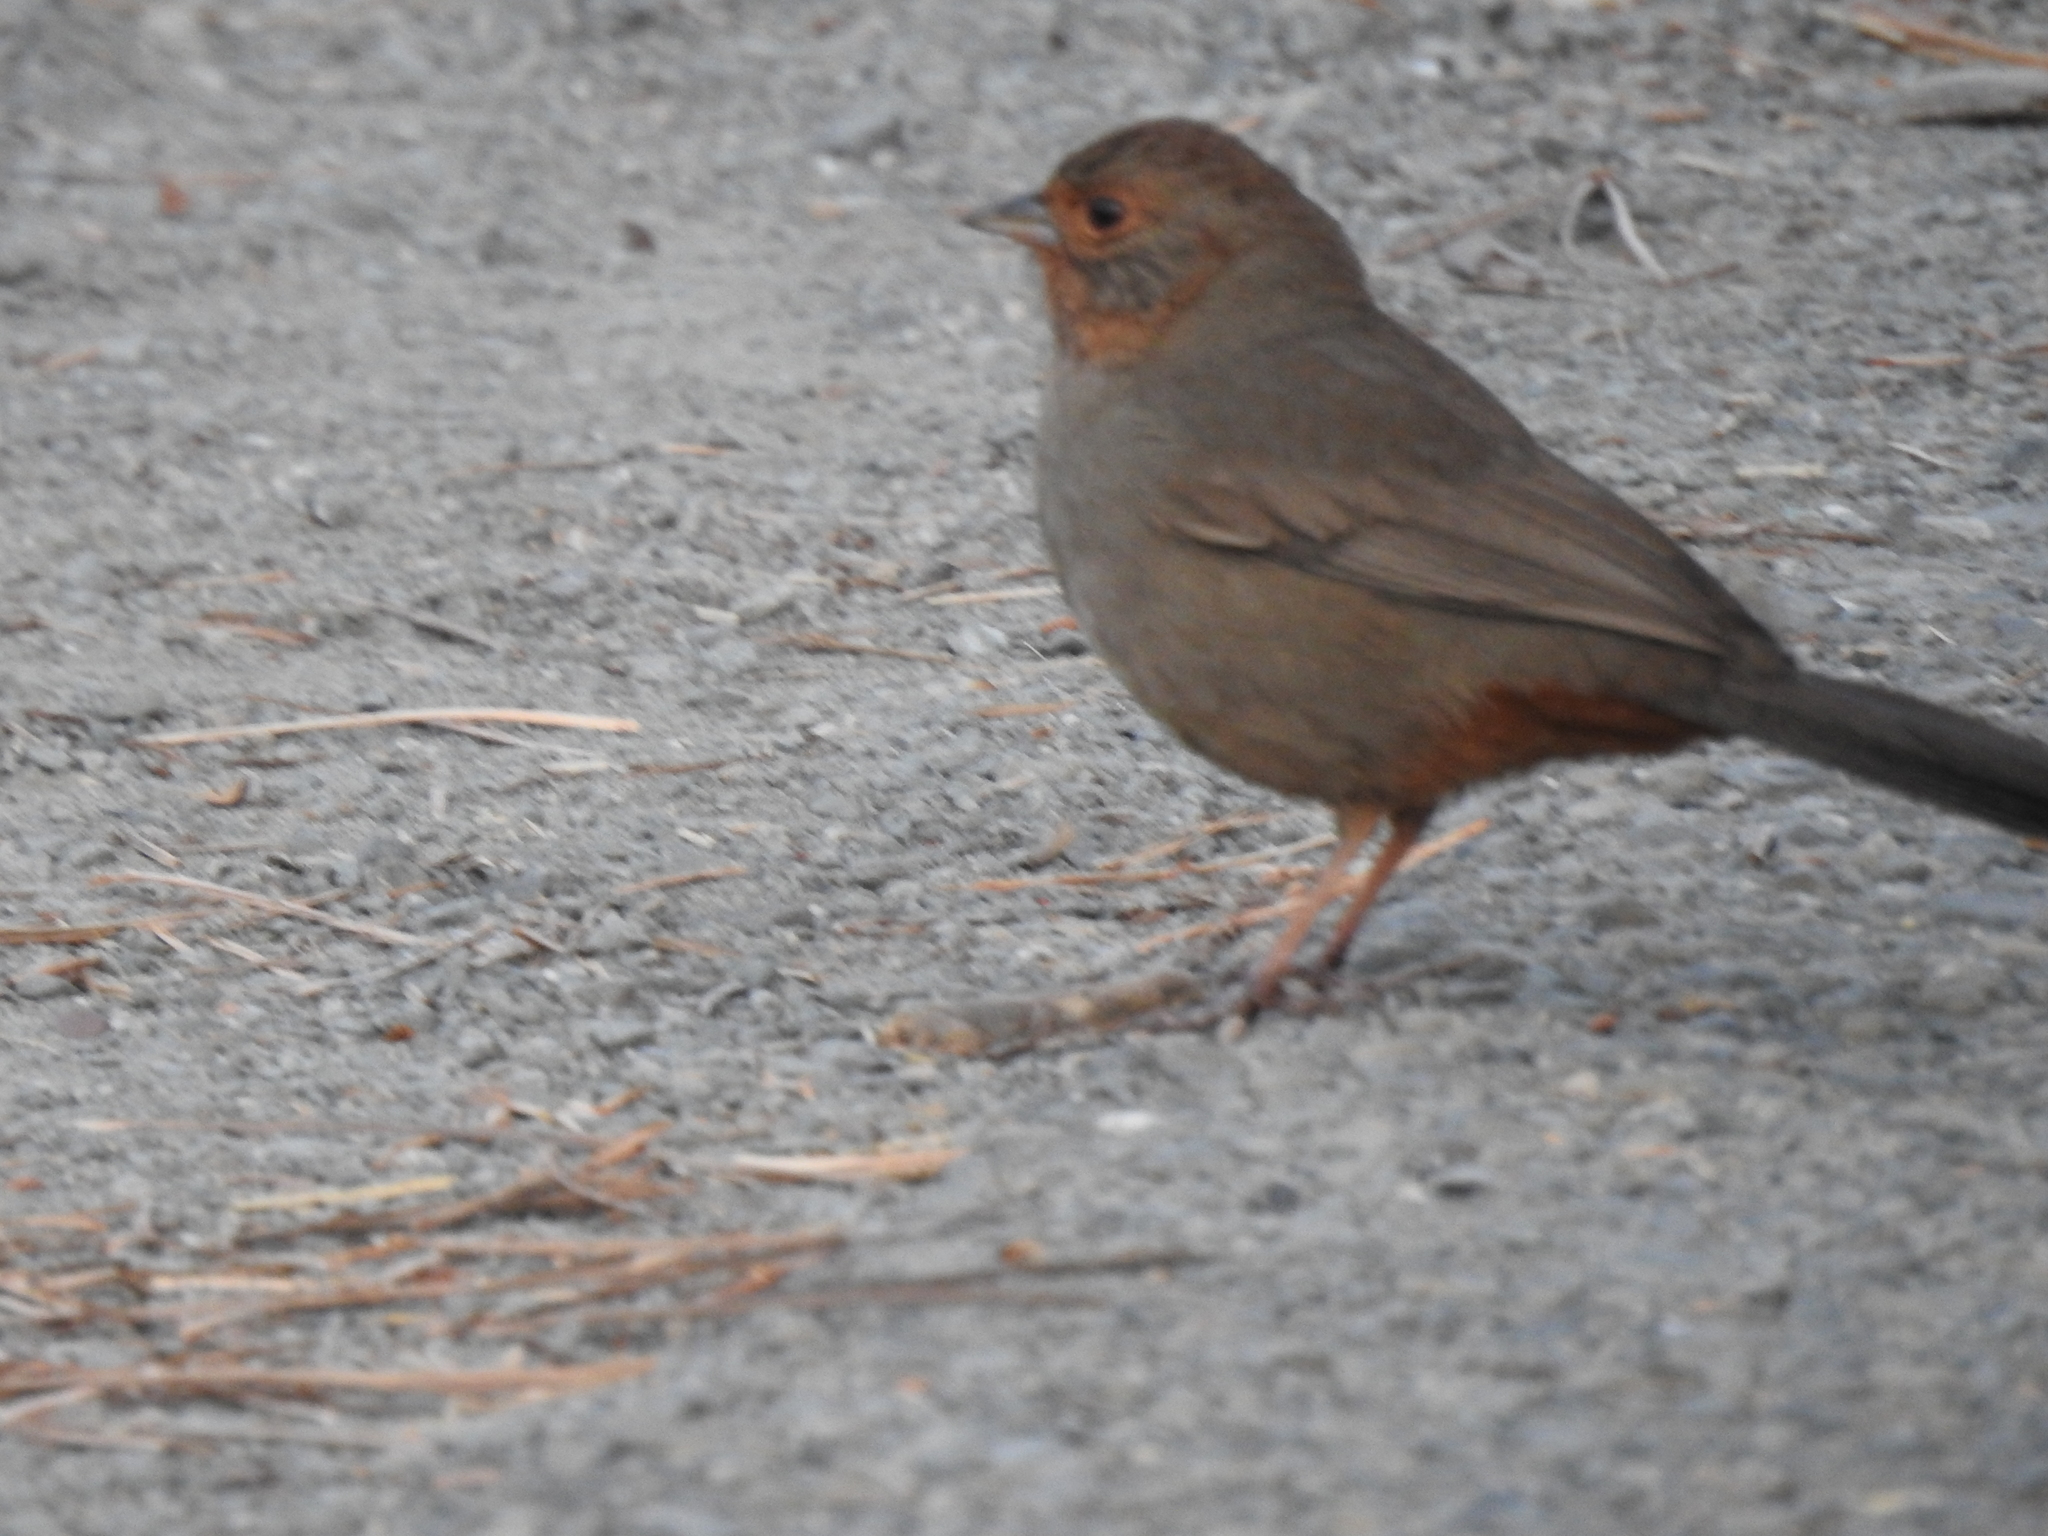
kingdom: Animalia
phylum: Chordata
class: Aves
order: Passeriformes
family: Passerellidae
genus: Melozone
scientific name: Melozone crissalis
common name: California towhee
